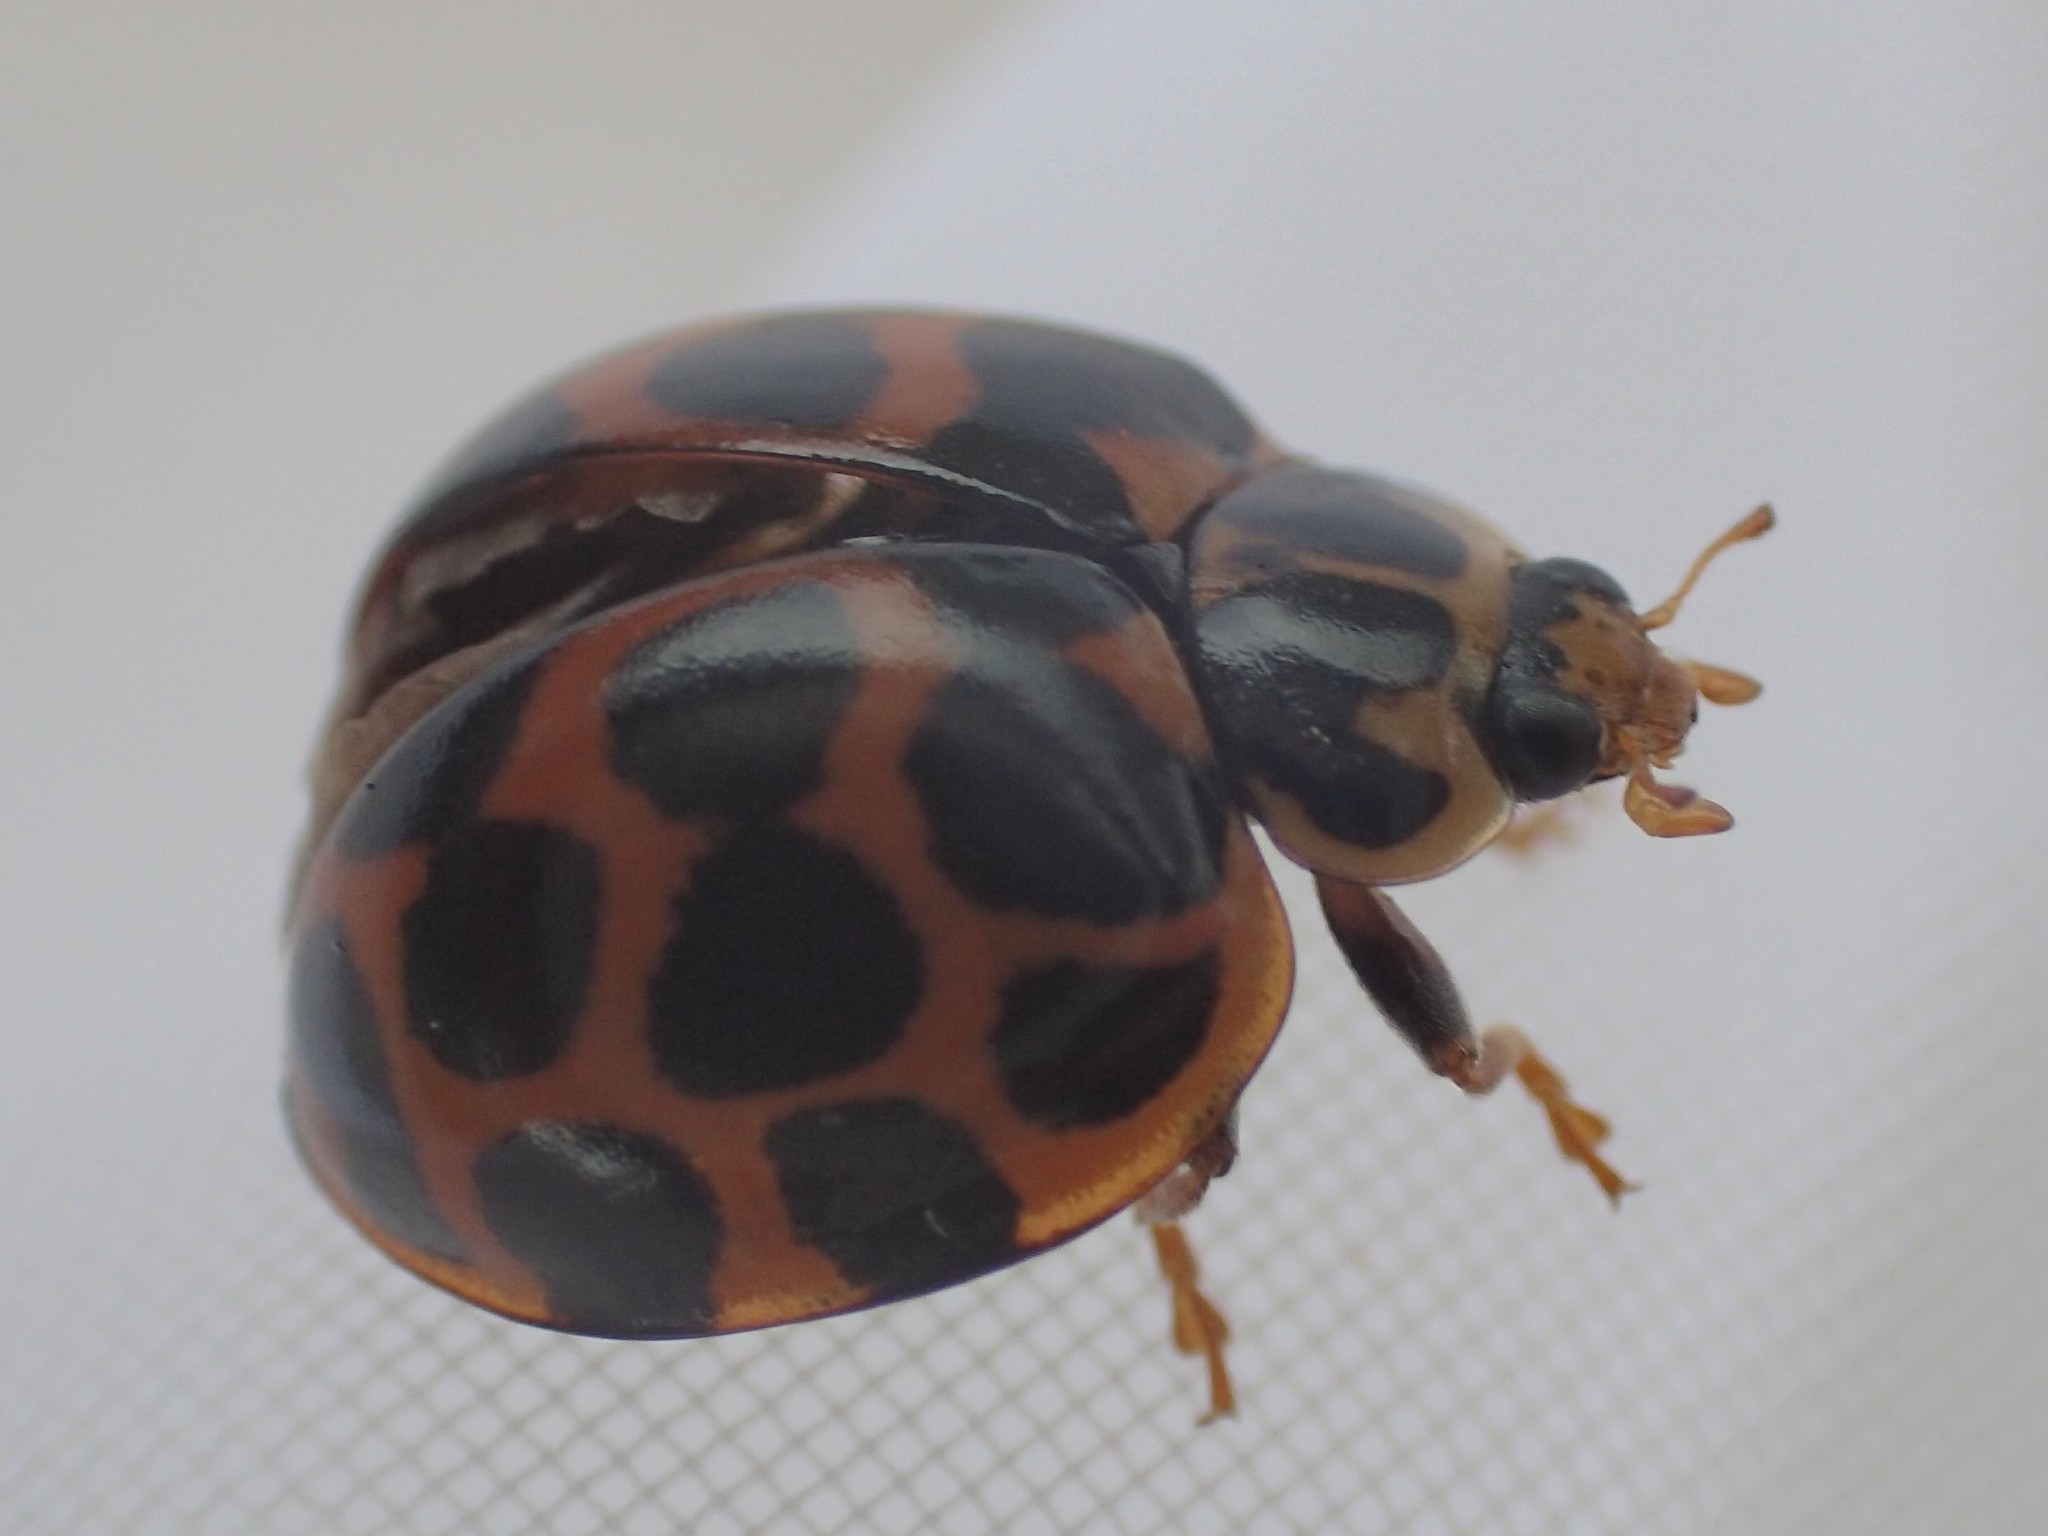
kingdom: Animalia
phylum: Arthropoda
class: Insecta
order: Coleoptera
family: Coccinellidae
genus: Harmonia
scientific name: Harmonia conformis
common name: Common spotted ladybird beetle
